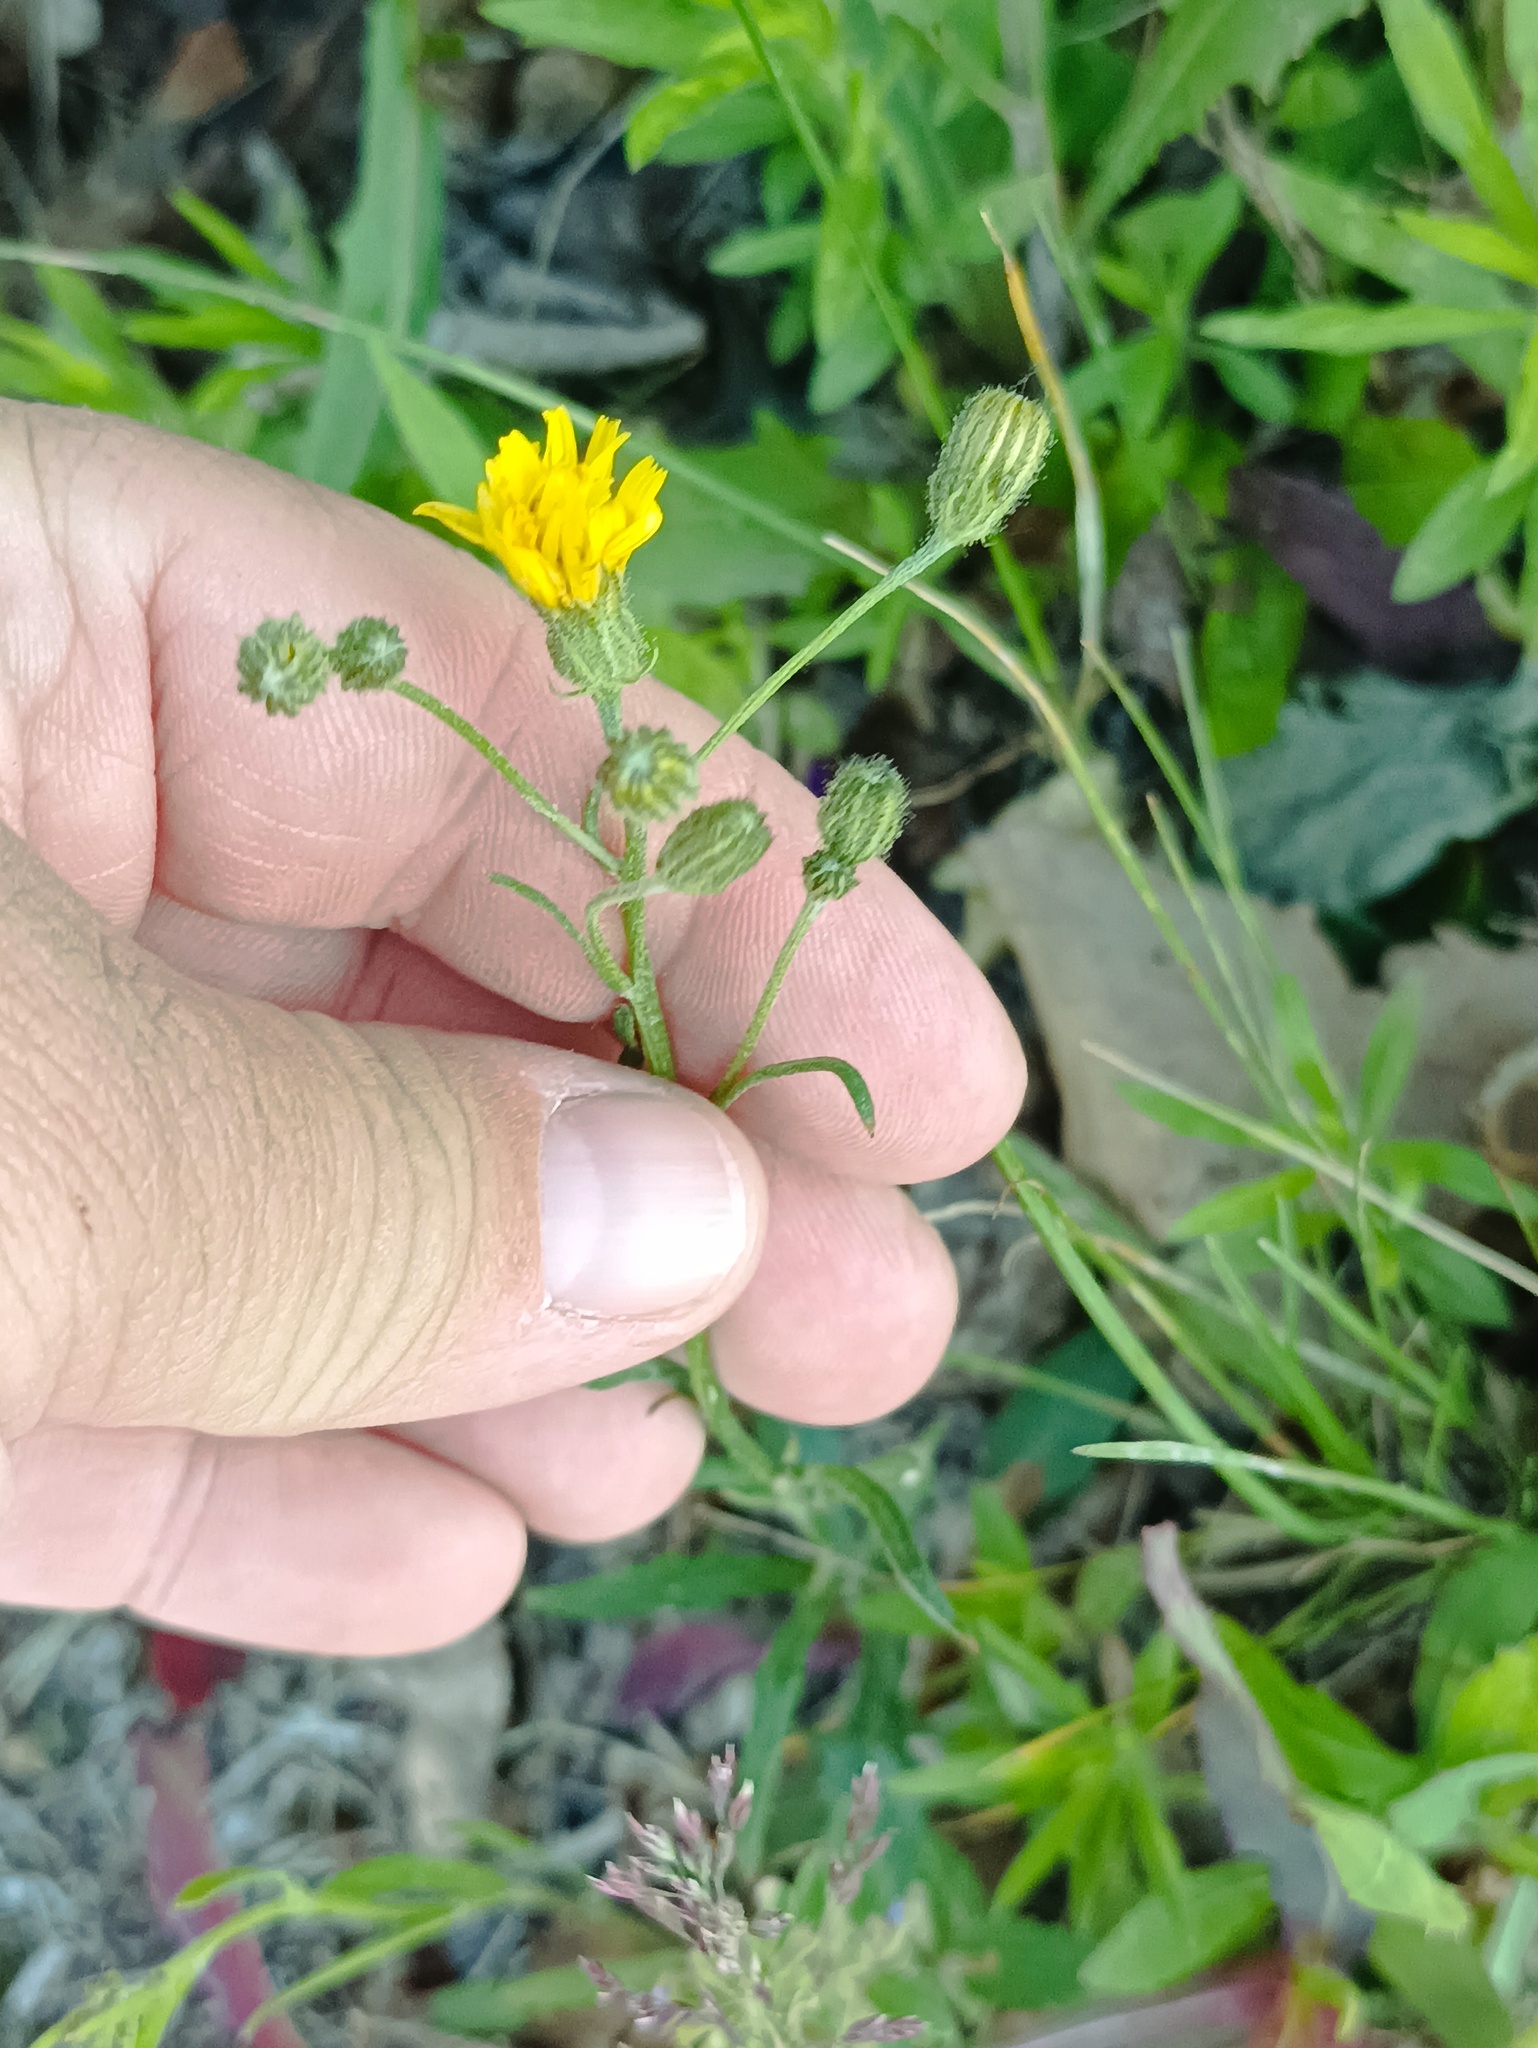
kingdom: Plantae
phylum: Tracheophyta
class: Magnoliopsida
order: Asterales
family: Asteraceae
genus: Crepis
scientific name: Crepis tectorum
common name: Narrow-leaved hawk's-beard
